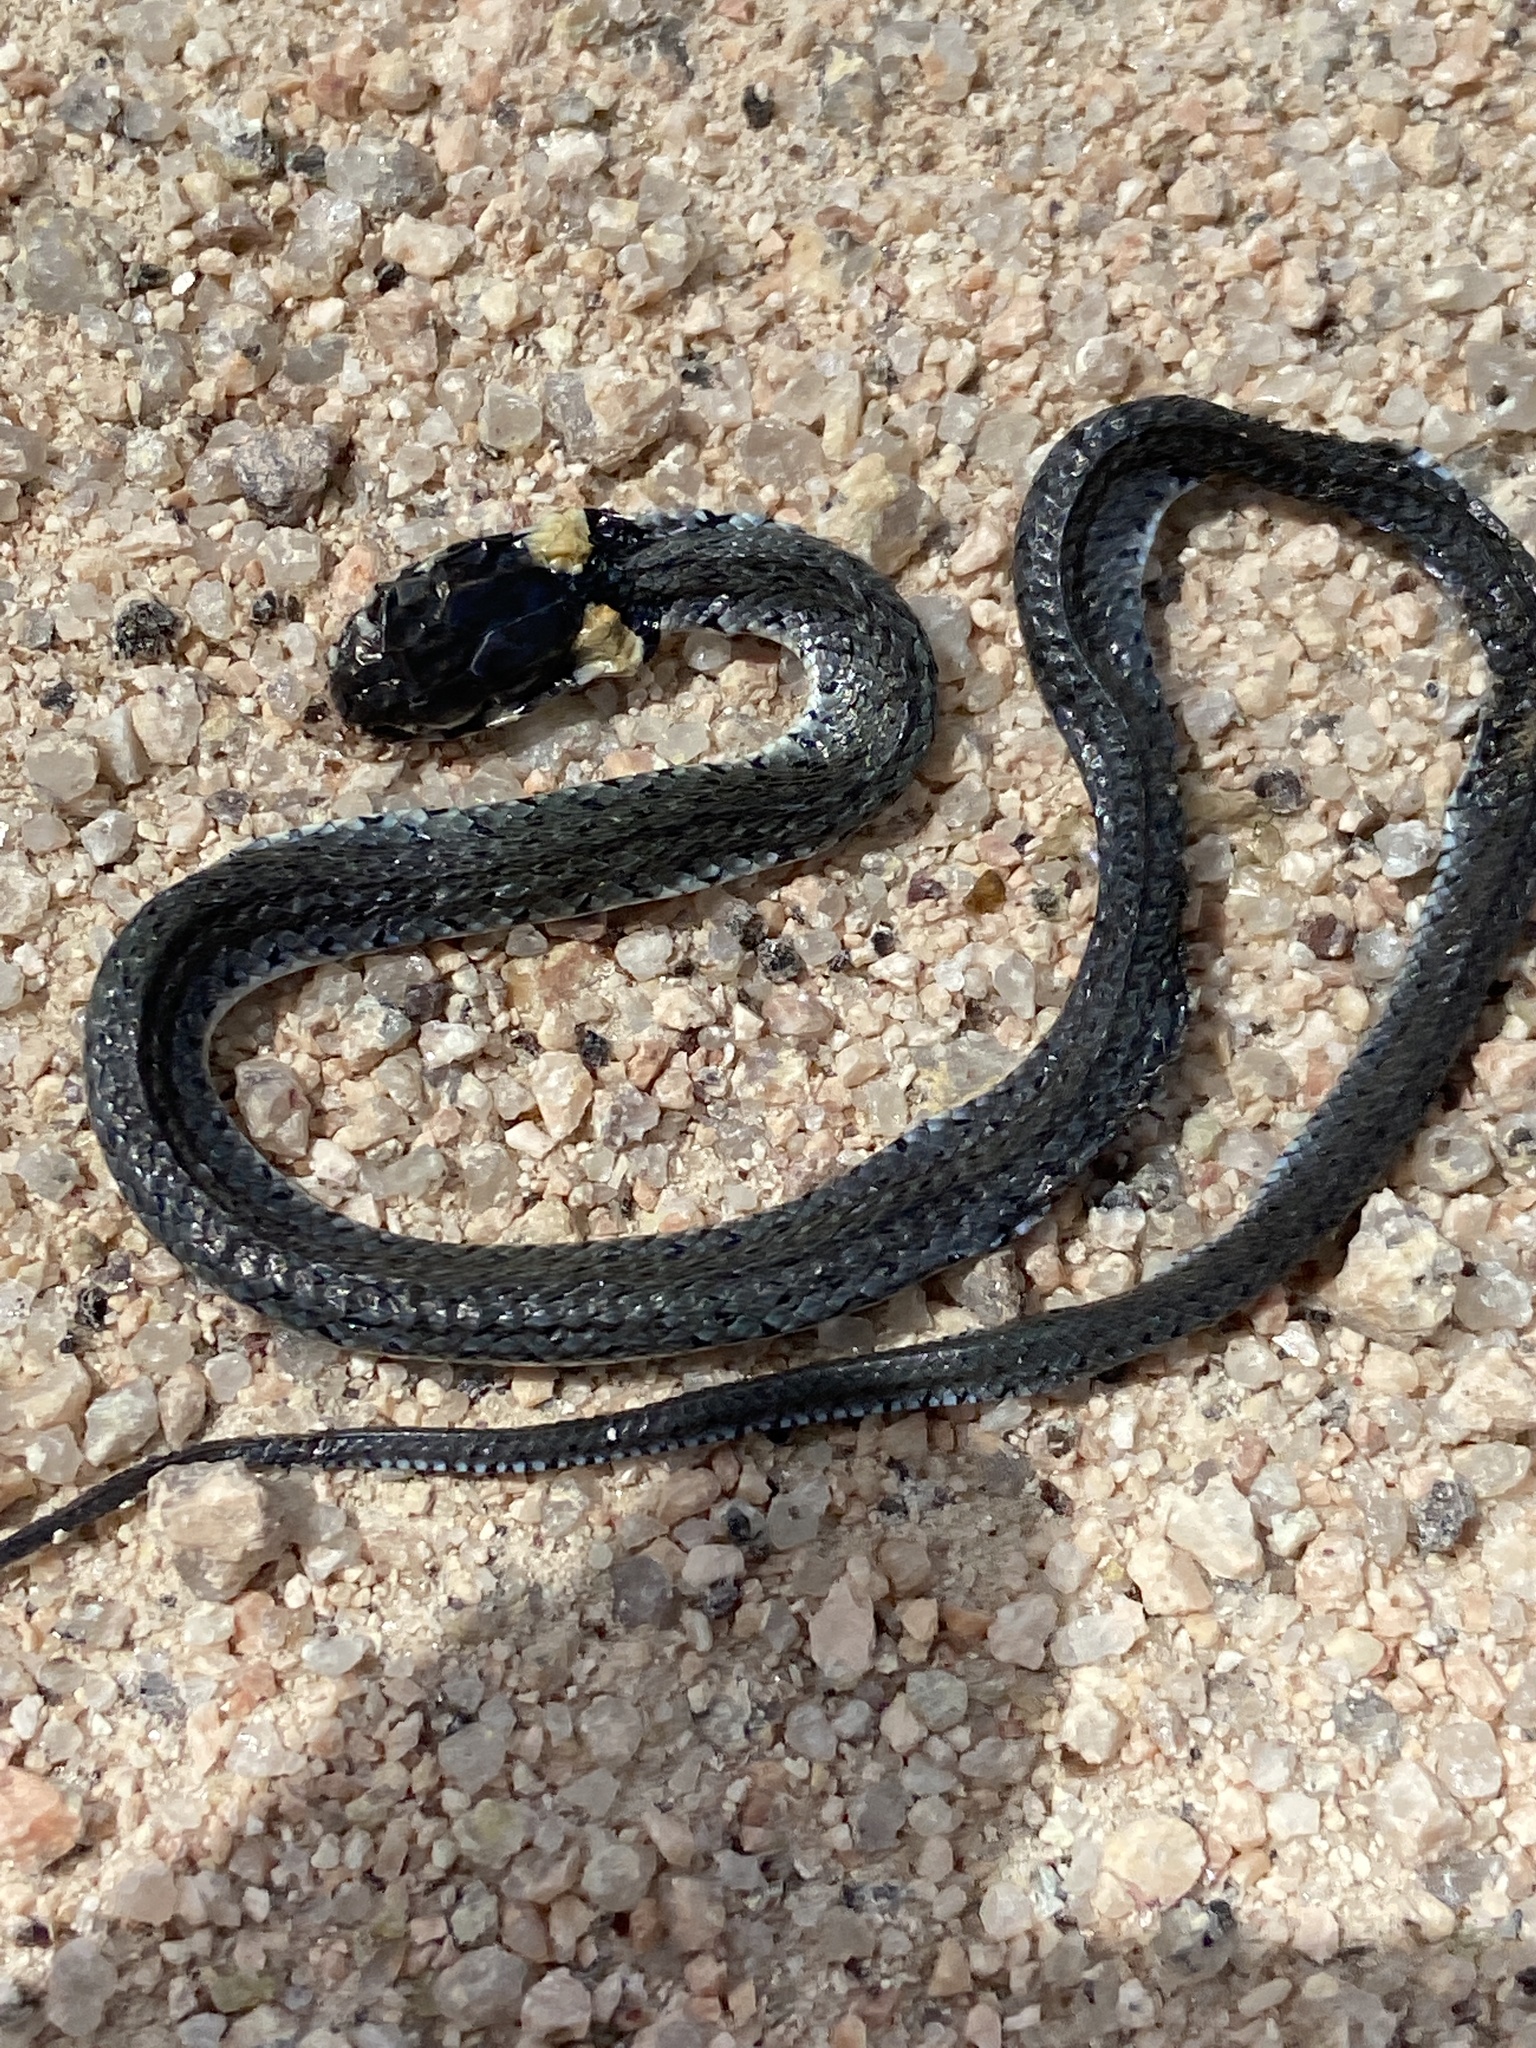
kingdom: Animalia
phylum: Chordata
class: Squamata
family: Colubridae
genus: Natrix
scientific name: Natrix natrix
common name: Grass snake
